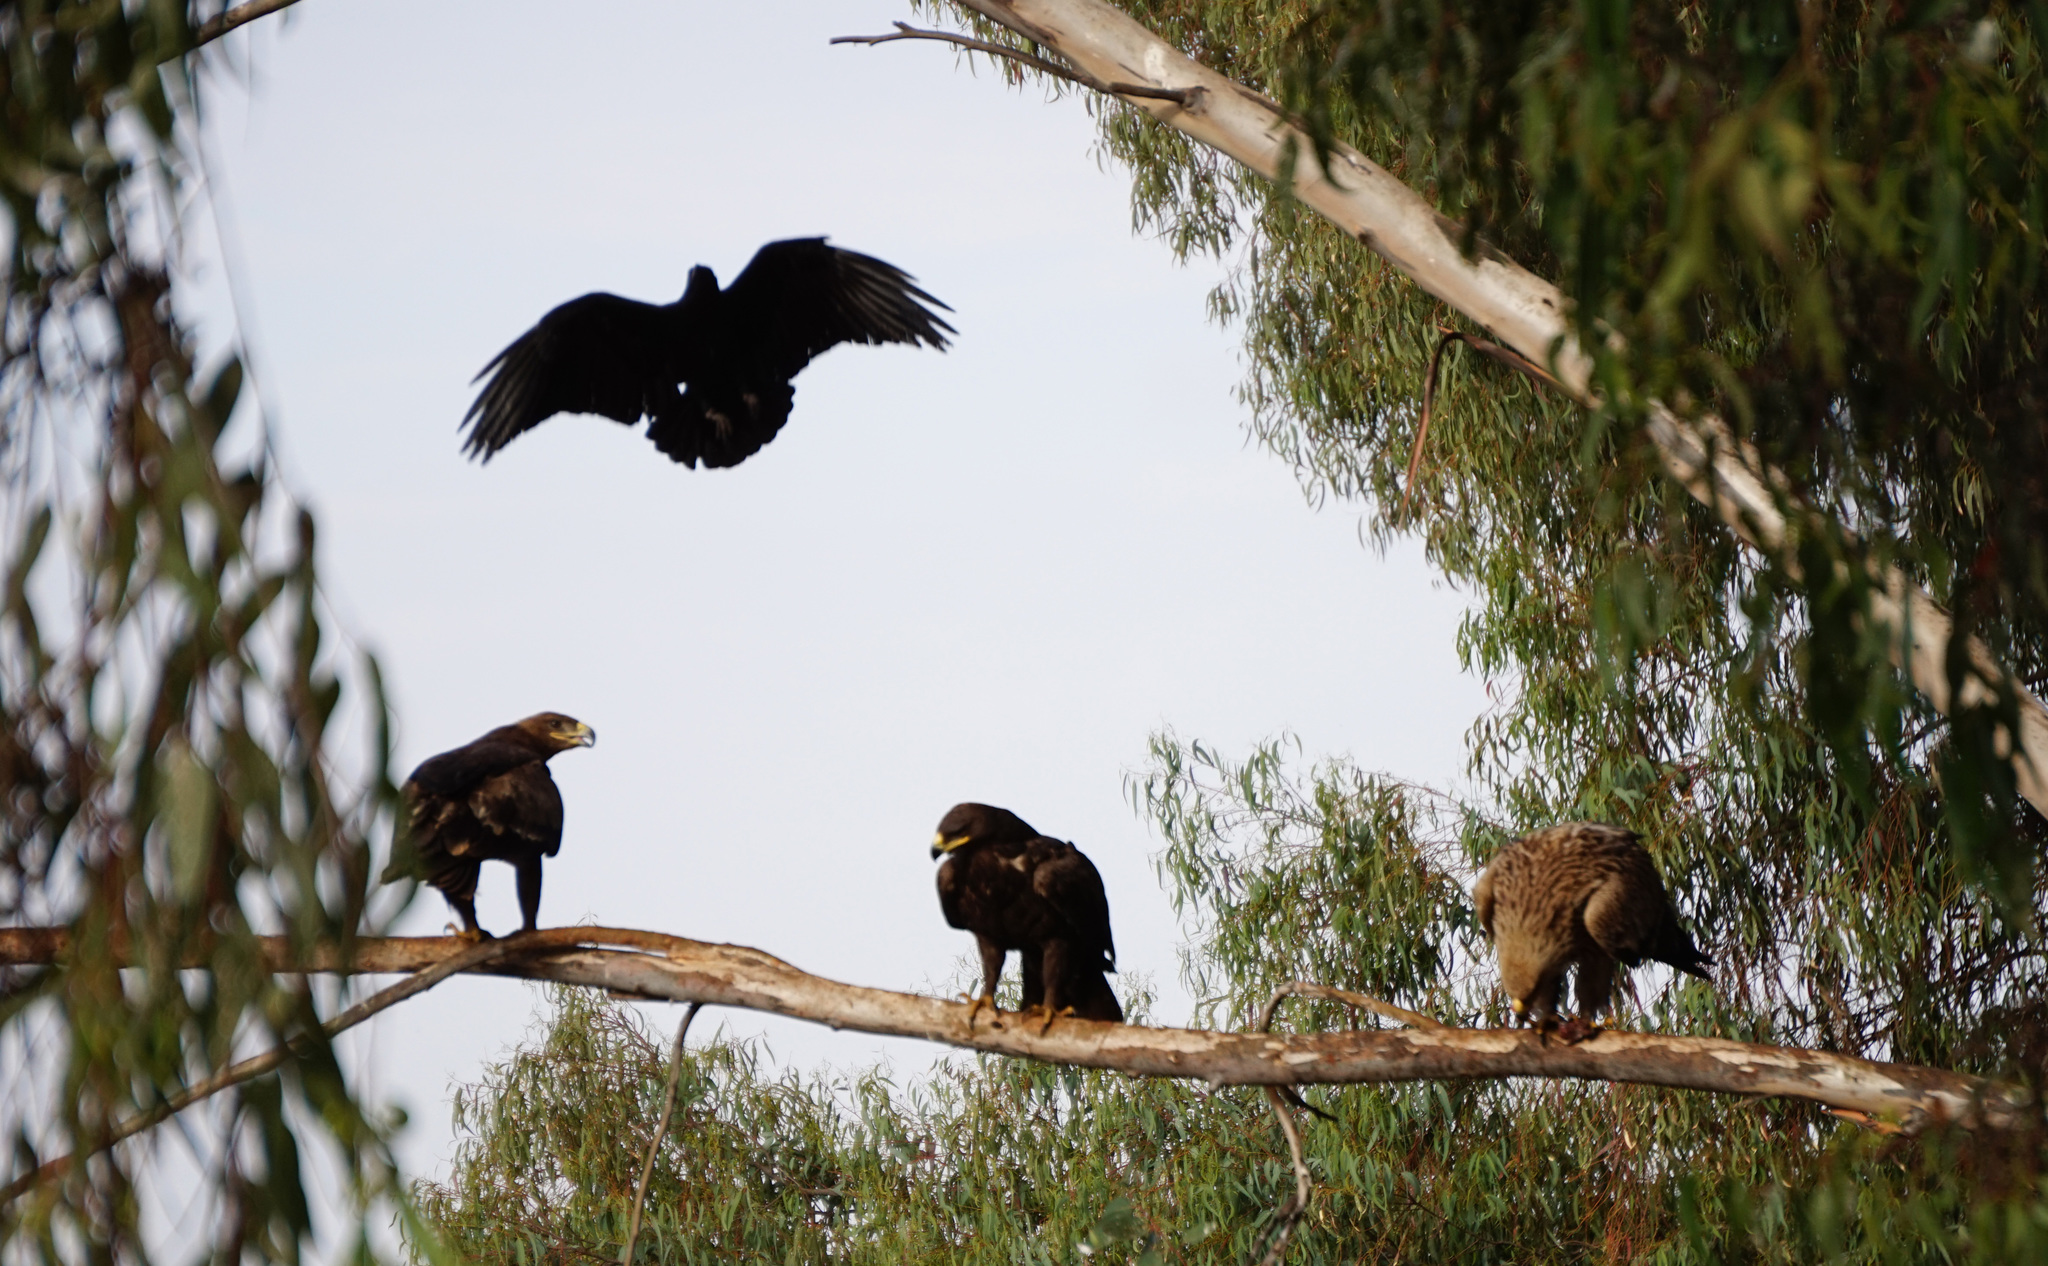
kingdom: Animalia
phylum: Chordata
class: Aves
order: Accipitriformes
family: Accipitridae
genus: Aquila
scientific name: Aquila nipalensis
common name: Steppe eagle
